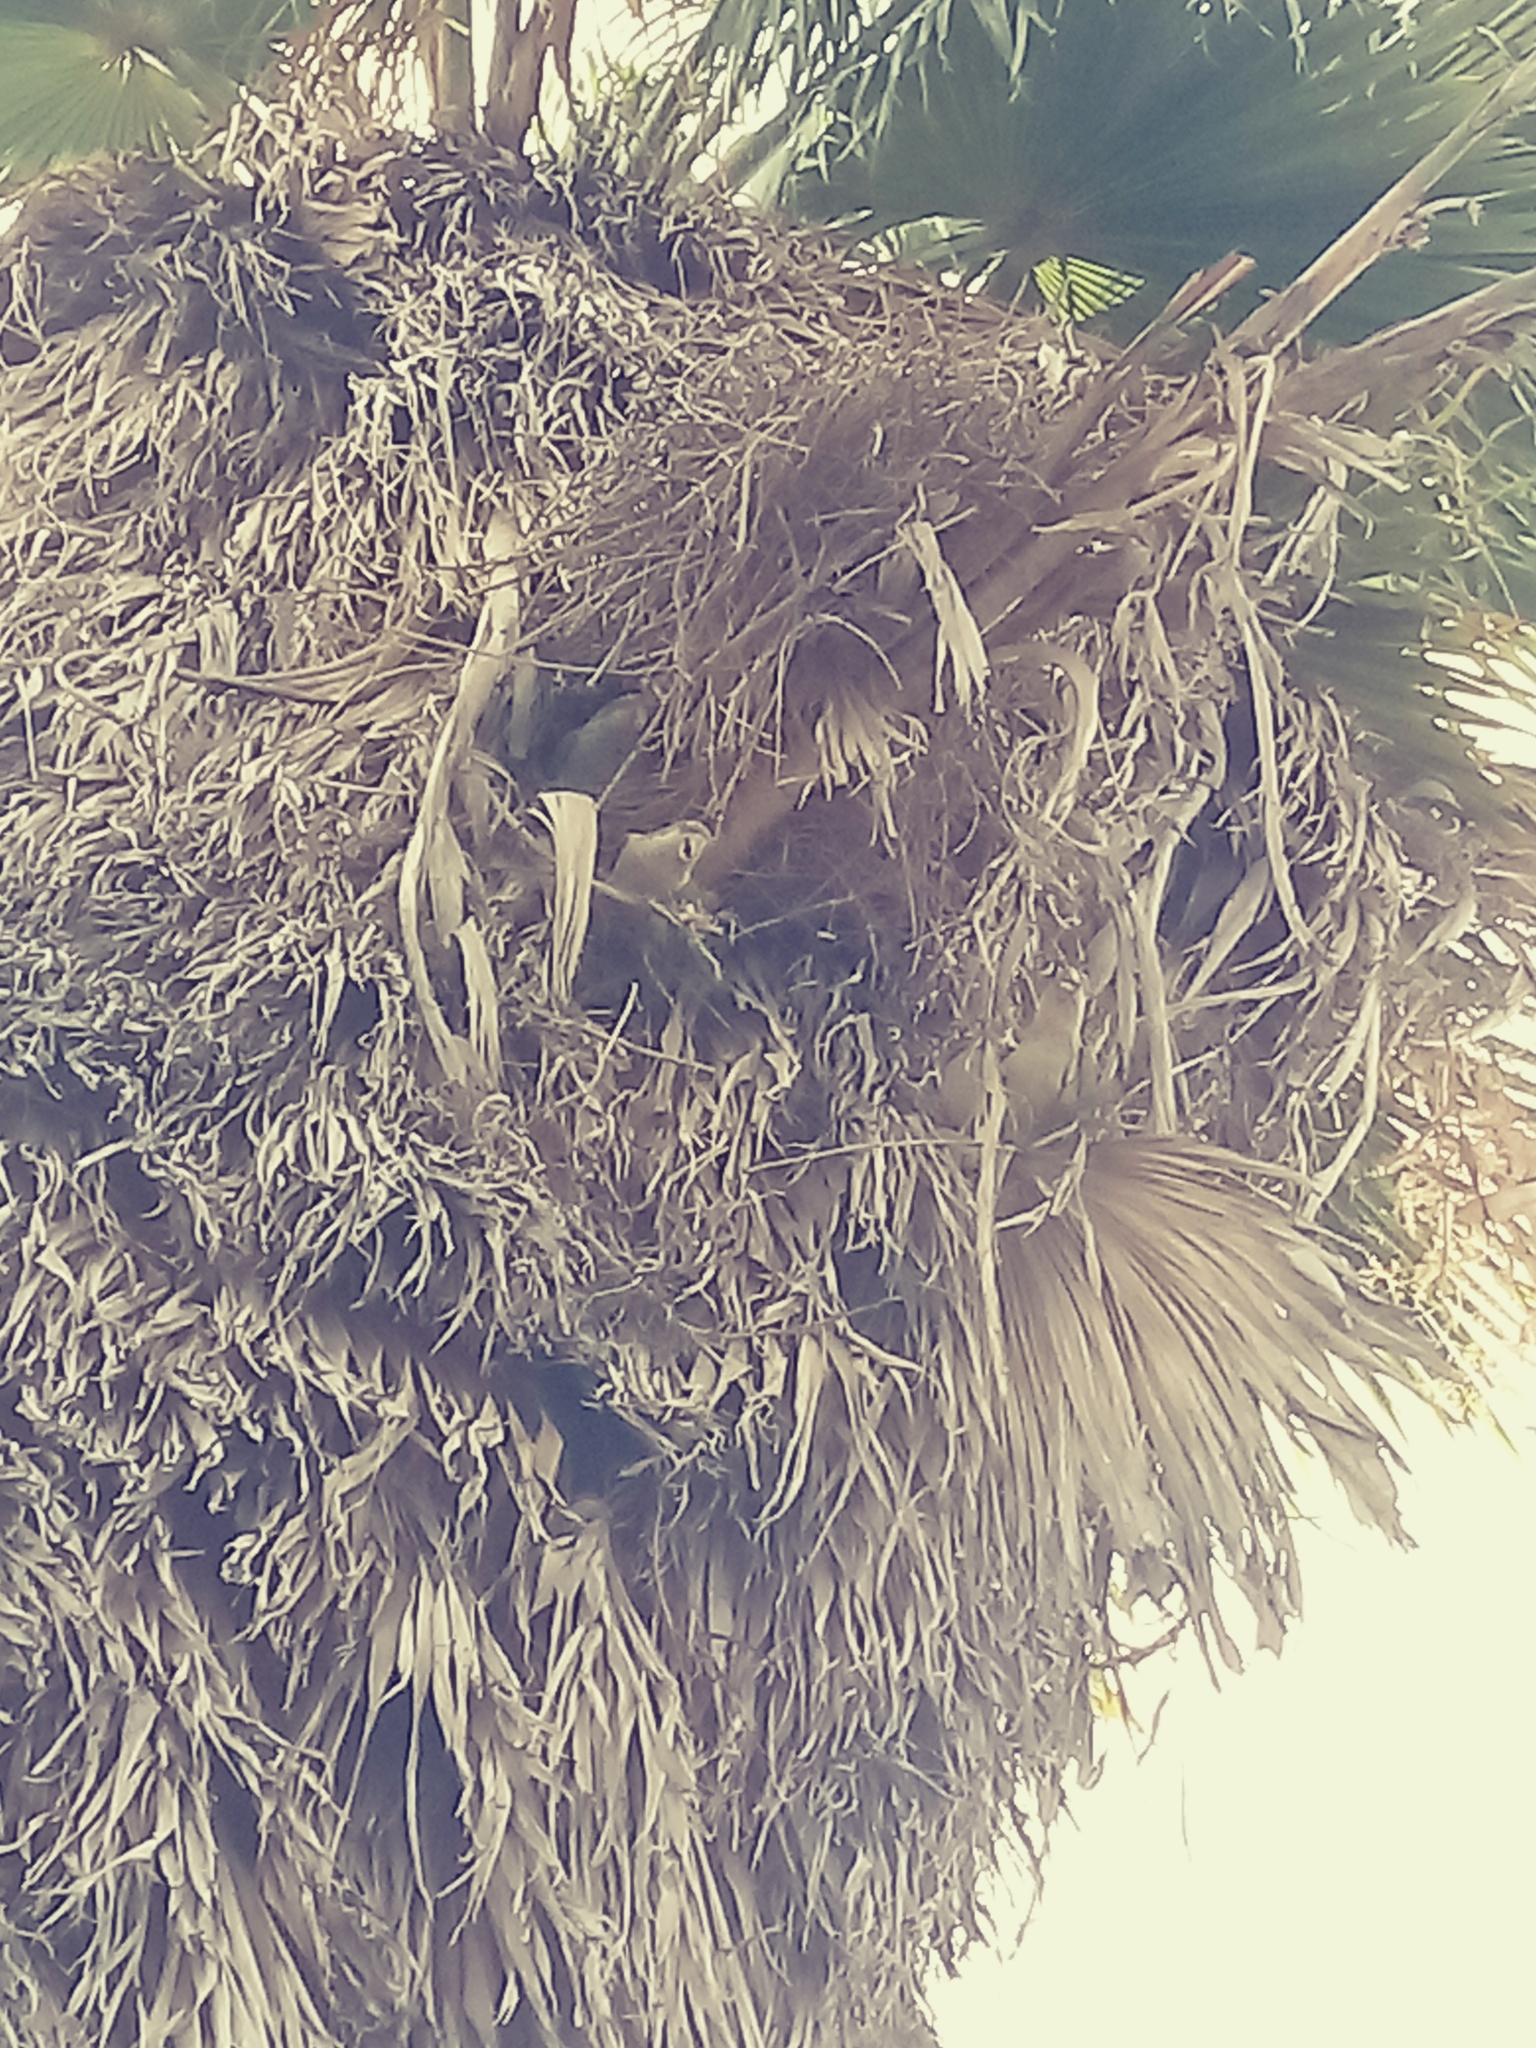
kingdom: Animalia
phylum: Chordata
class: Aves
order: Psittaciformes
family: Psittacidae
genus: Myiopsitta
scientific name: Myiopsitta monachus
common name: Monk parakeet
